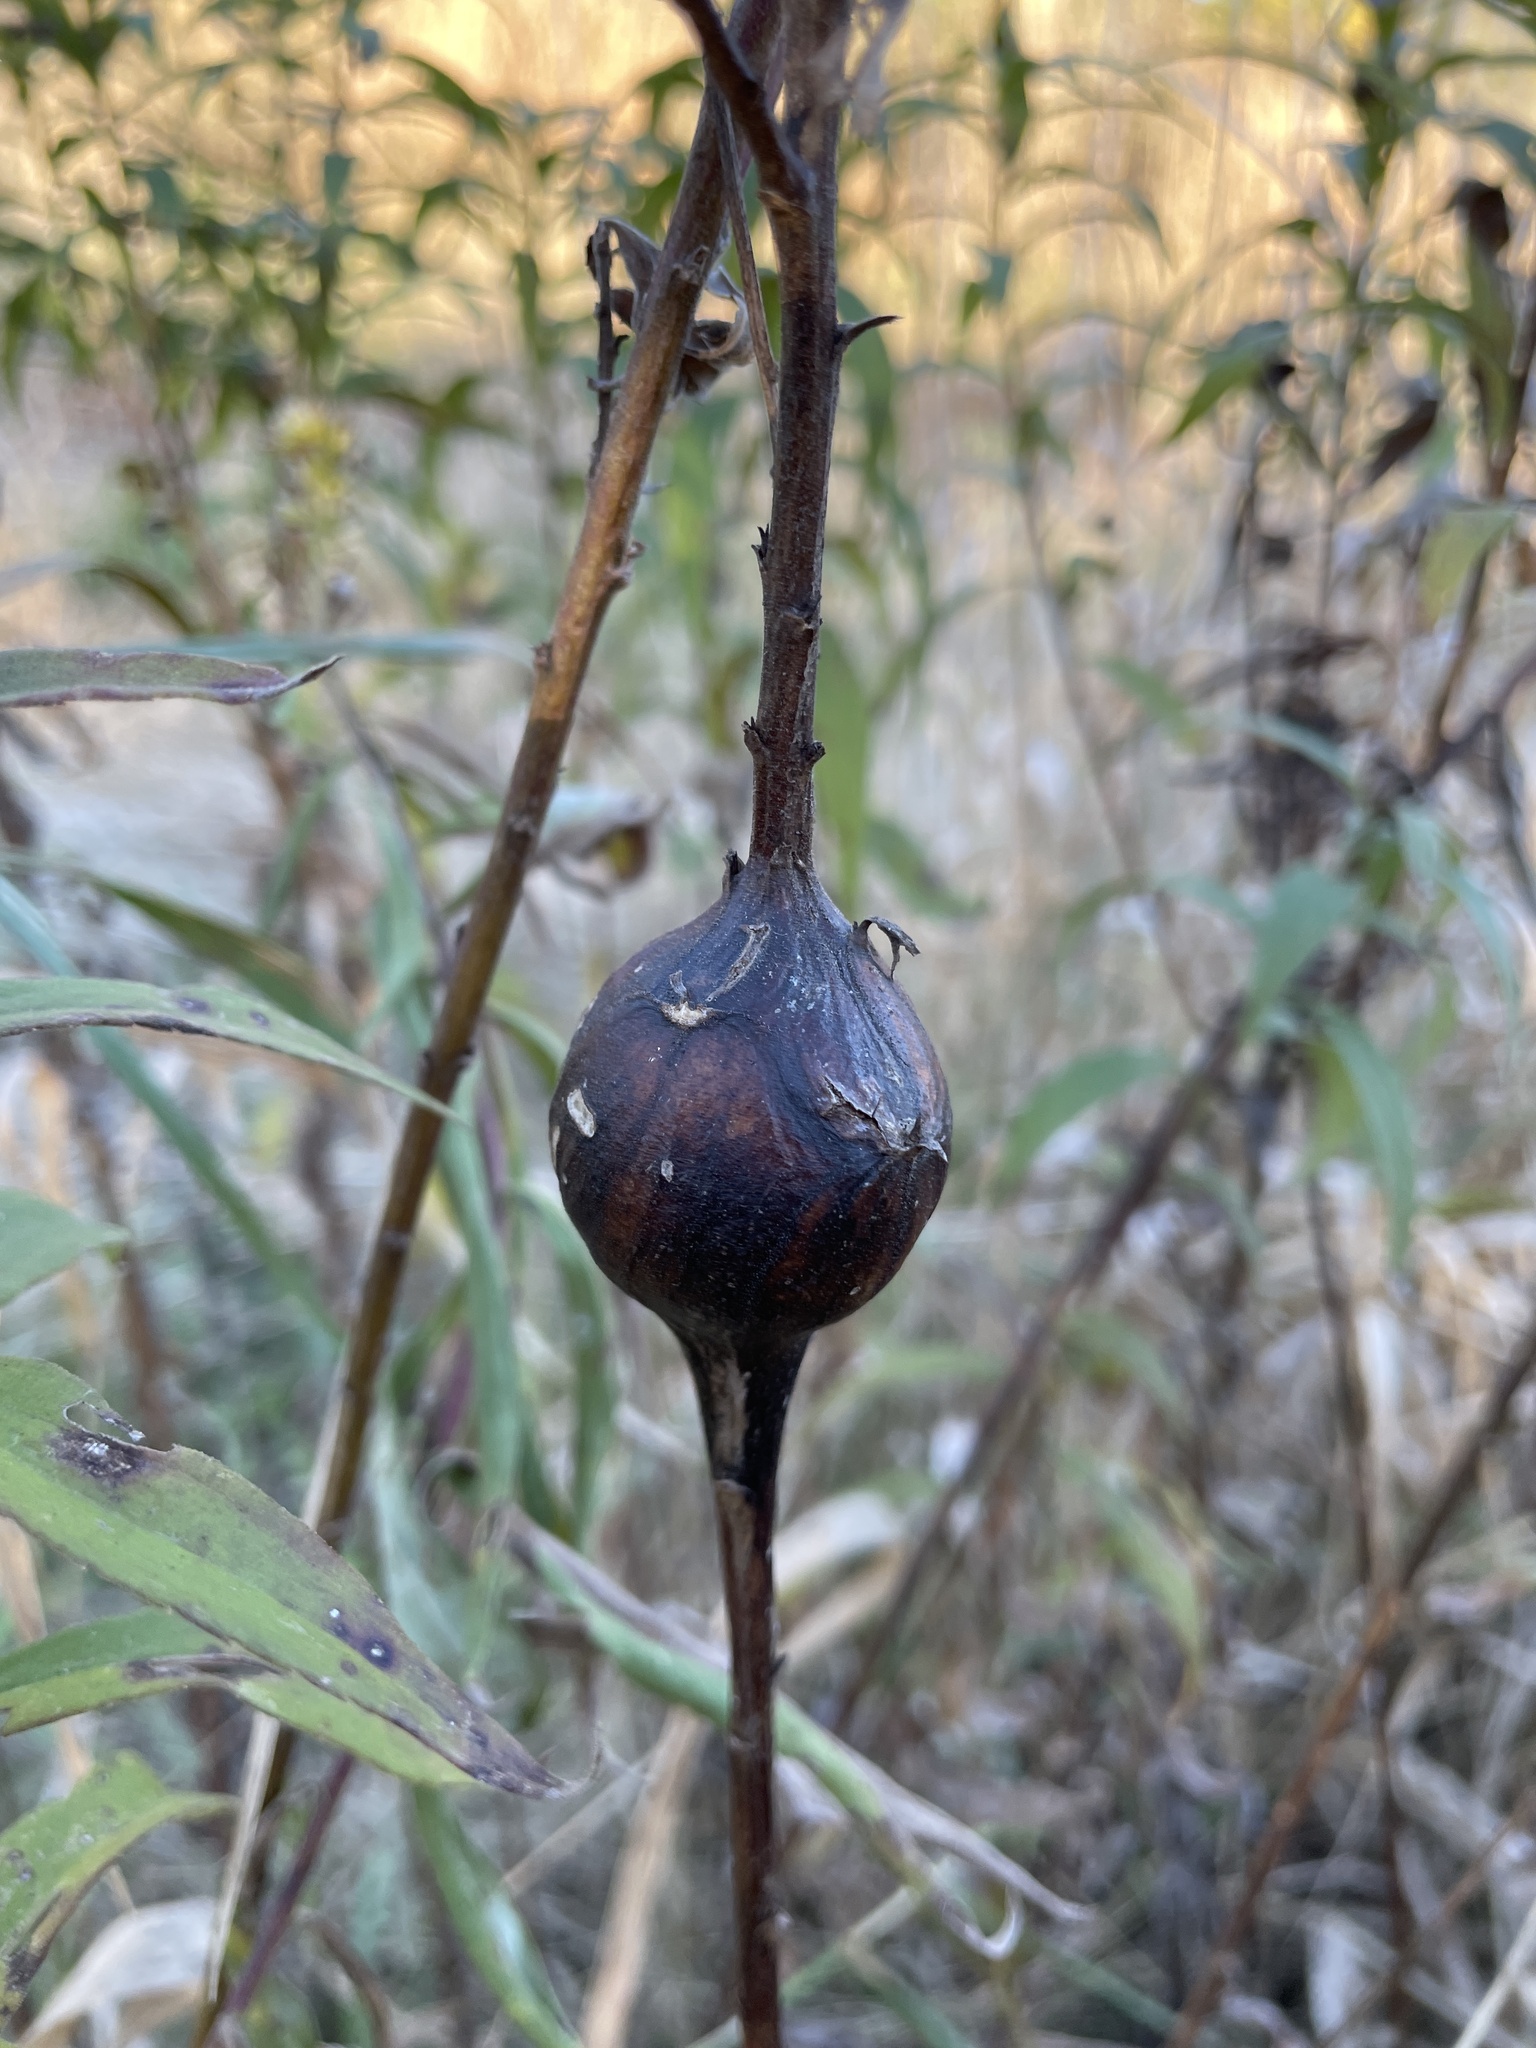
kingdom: Animalia
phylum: Arthropoda
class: Insecta
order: Diptera
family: Tephritidae
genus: Eurosta
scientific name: Eurosta solidaginis
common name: Goldenrod gall fly
